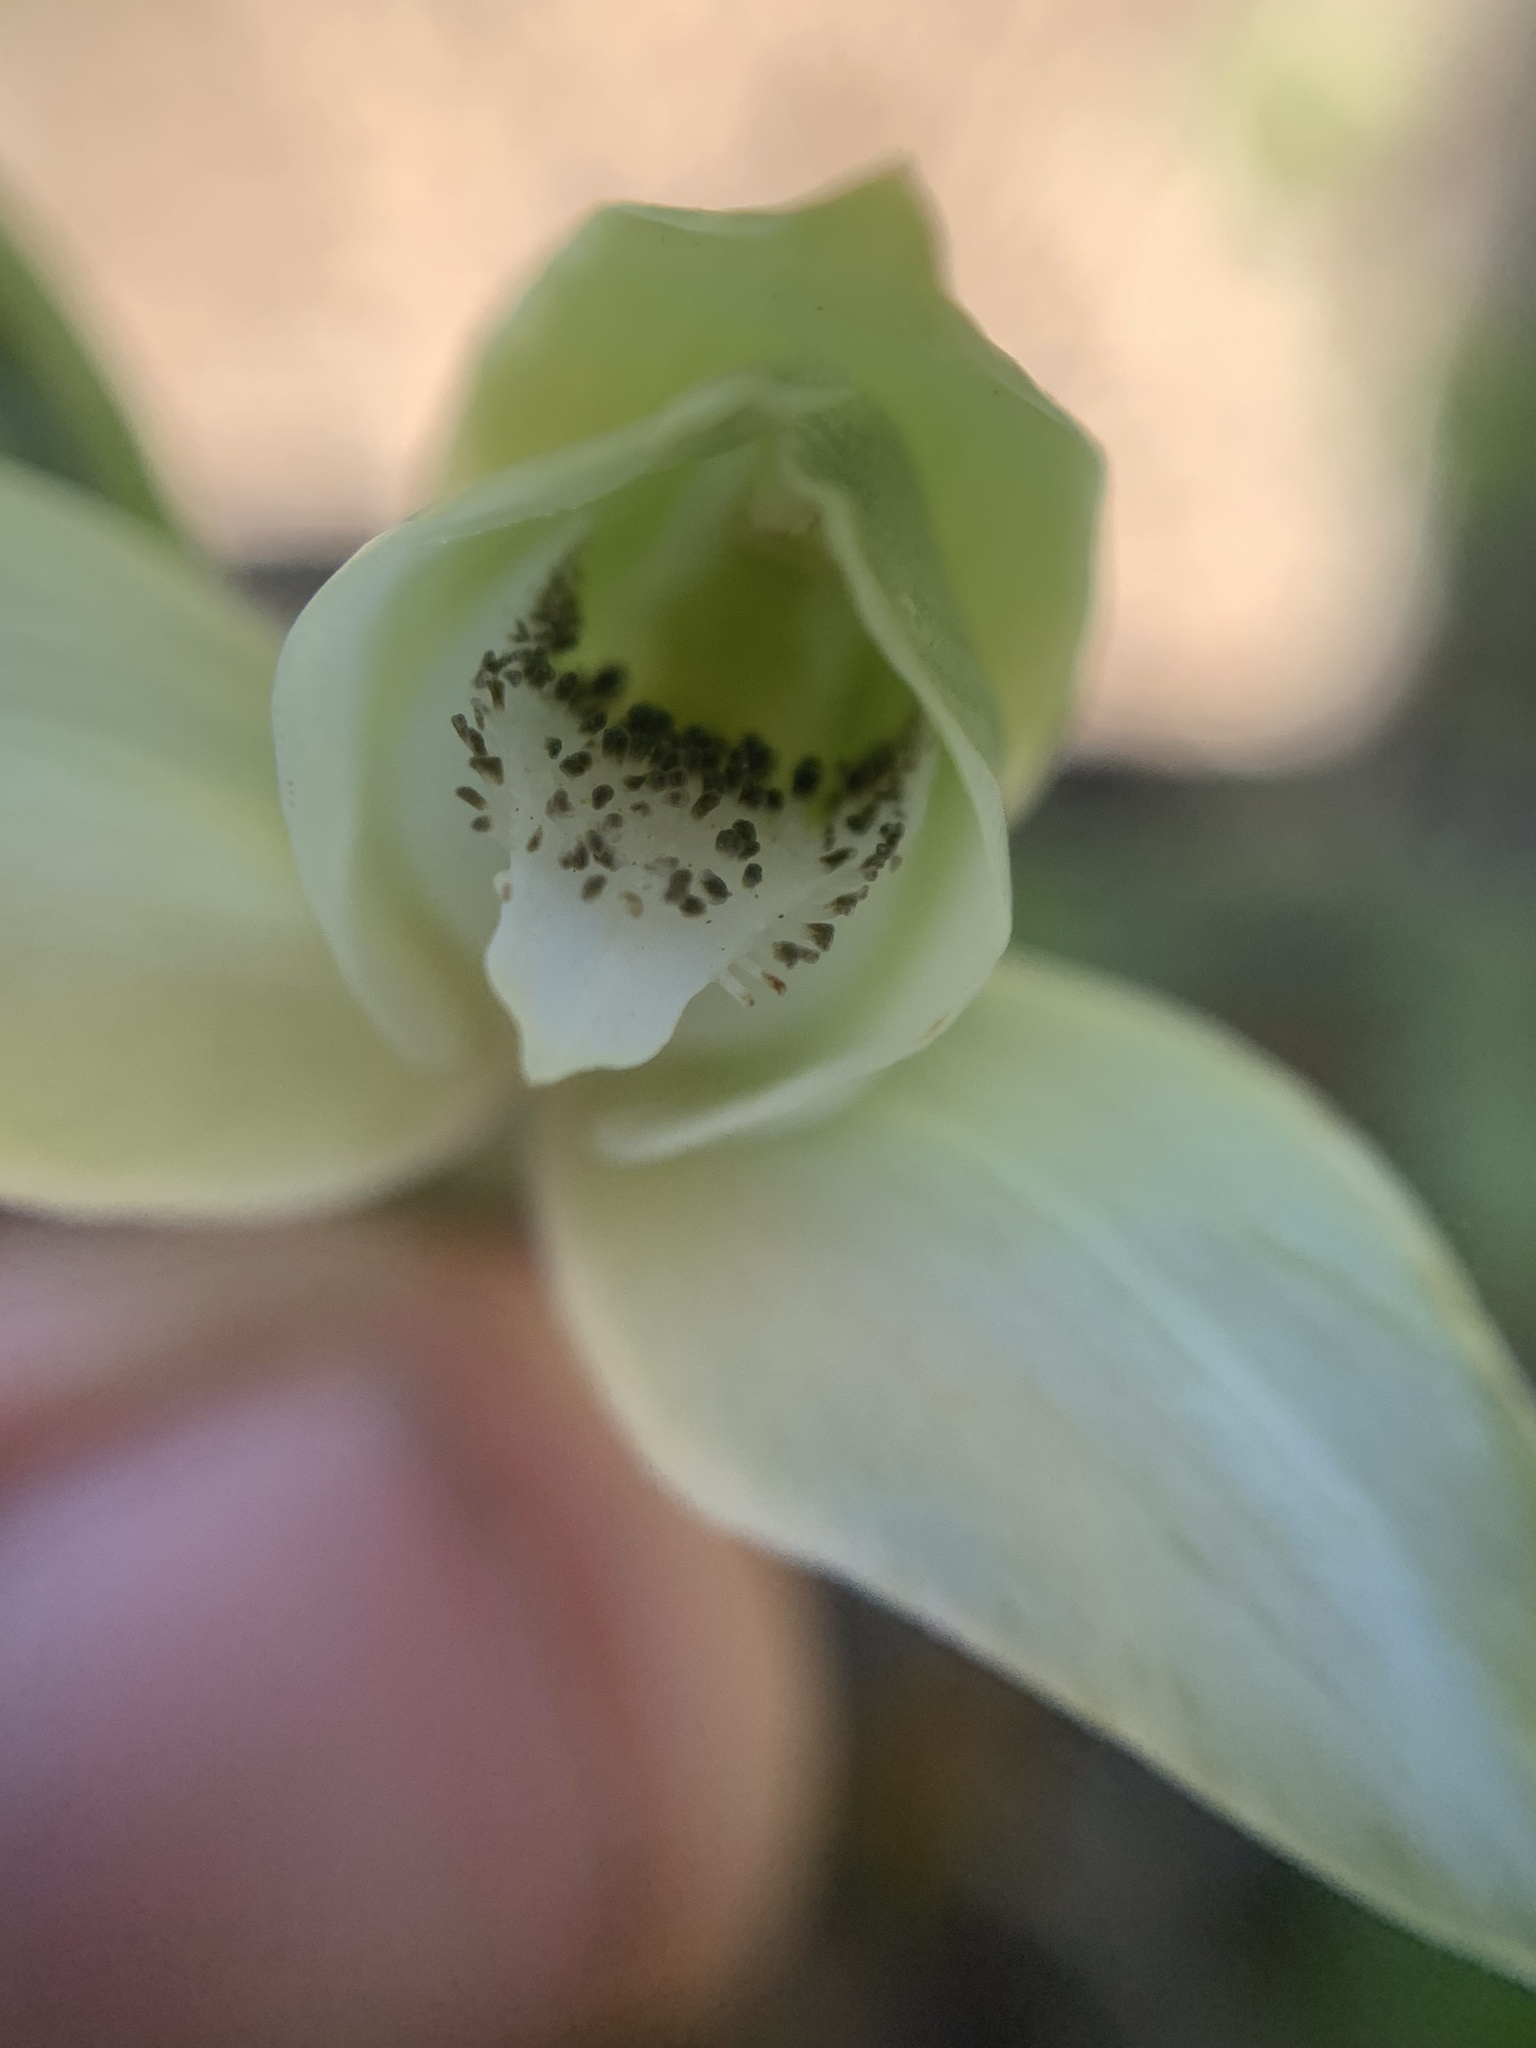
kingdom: Plantae
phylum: Tracheophyta
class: Liliopsida
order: Asparagales
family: Orchidaceae
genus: Chloraea
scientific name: Chloraea membranacea
